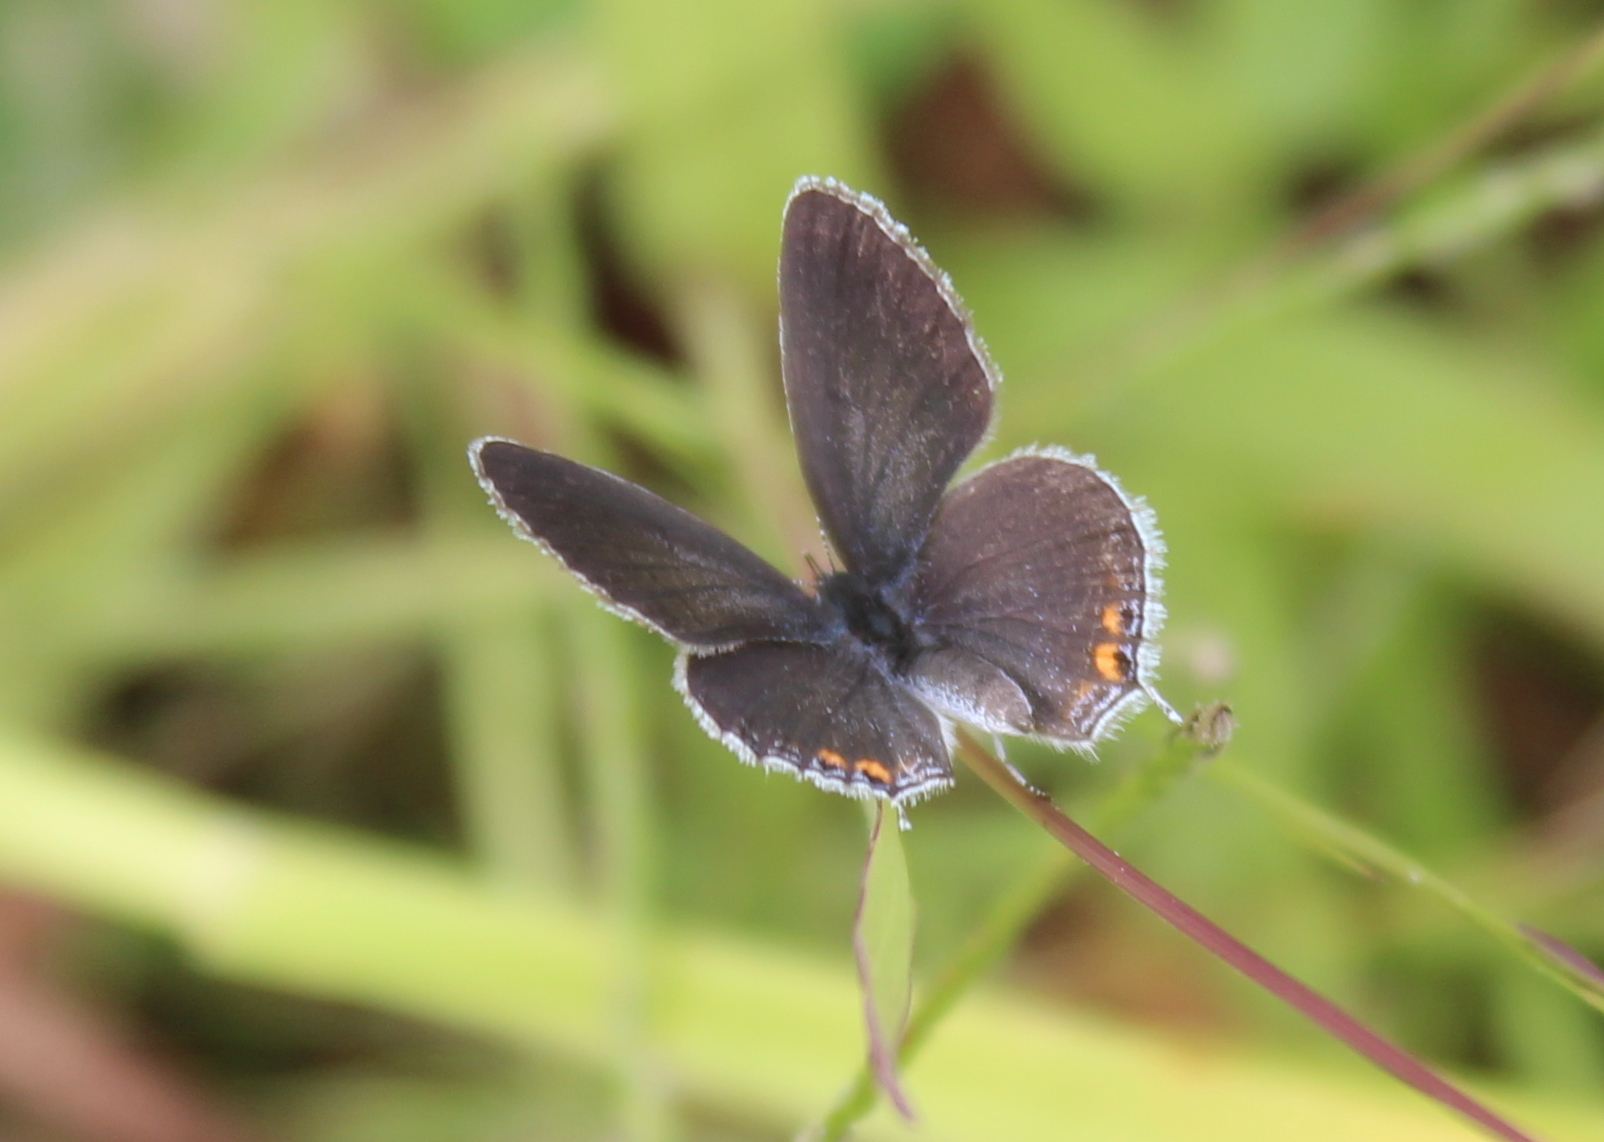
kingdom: Animalia
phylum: Arthropoda
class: Insecta
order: Lepidoptera
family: Lycaenidae
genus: Elkalyce
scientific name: Elkalyce comyntas
